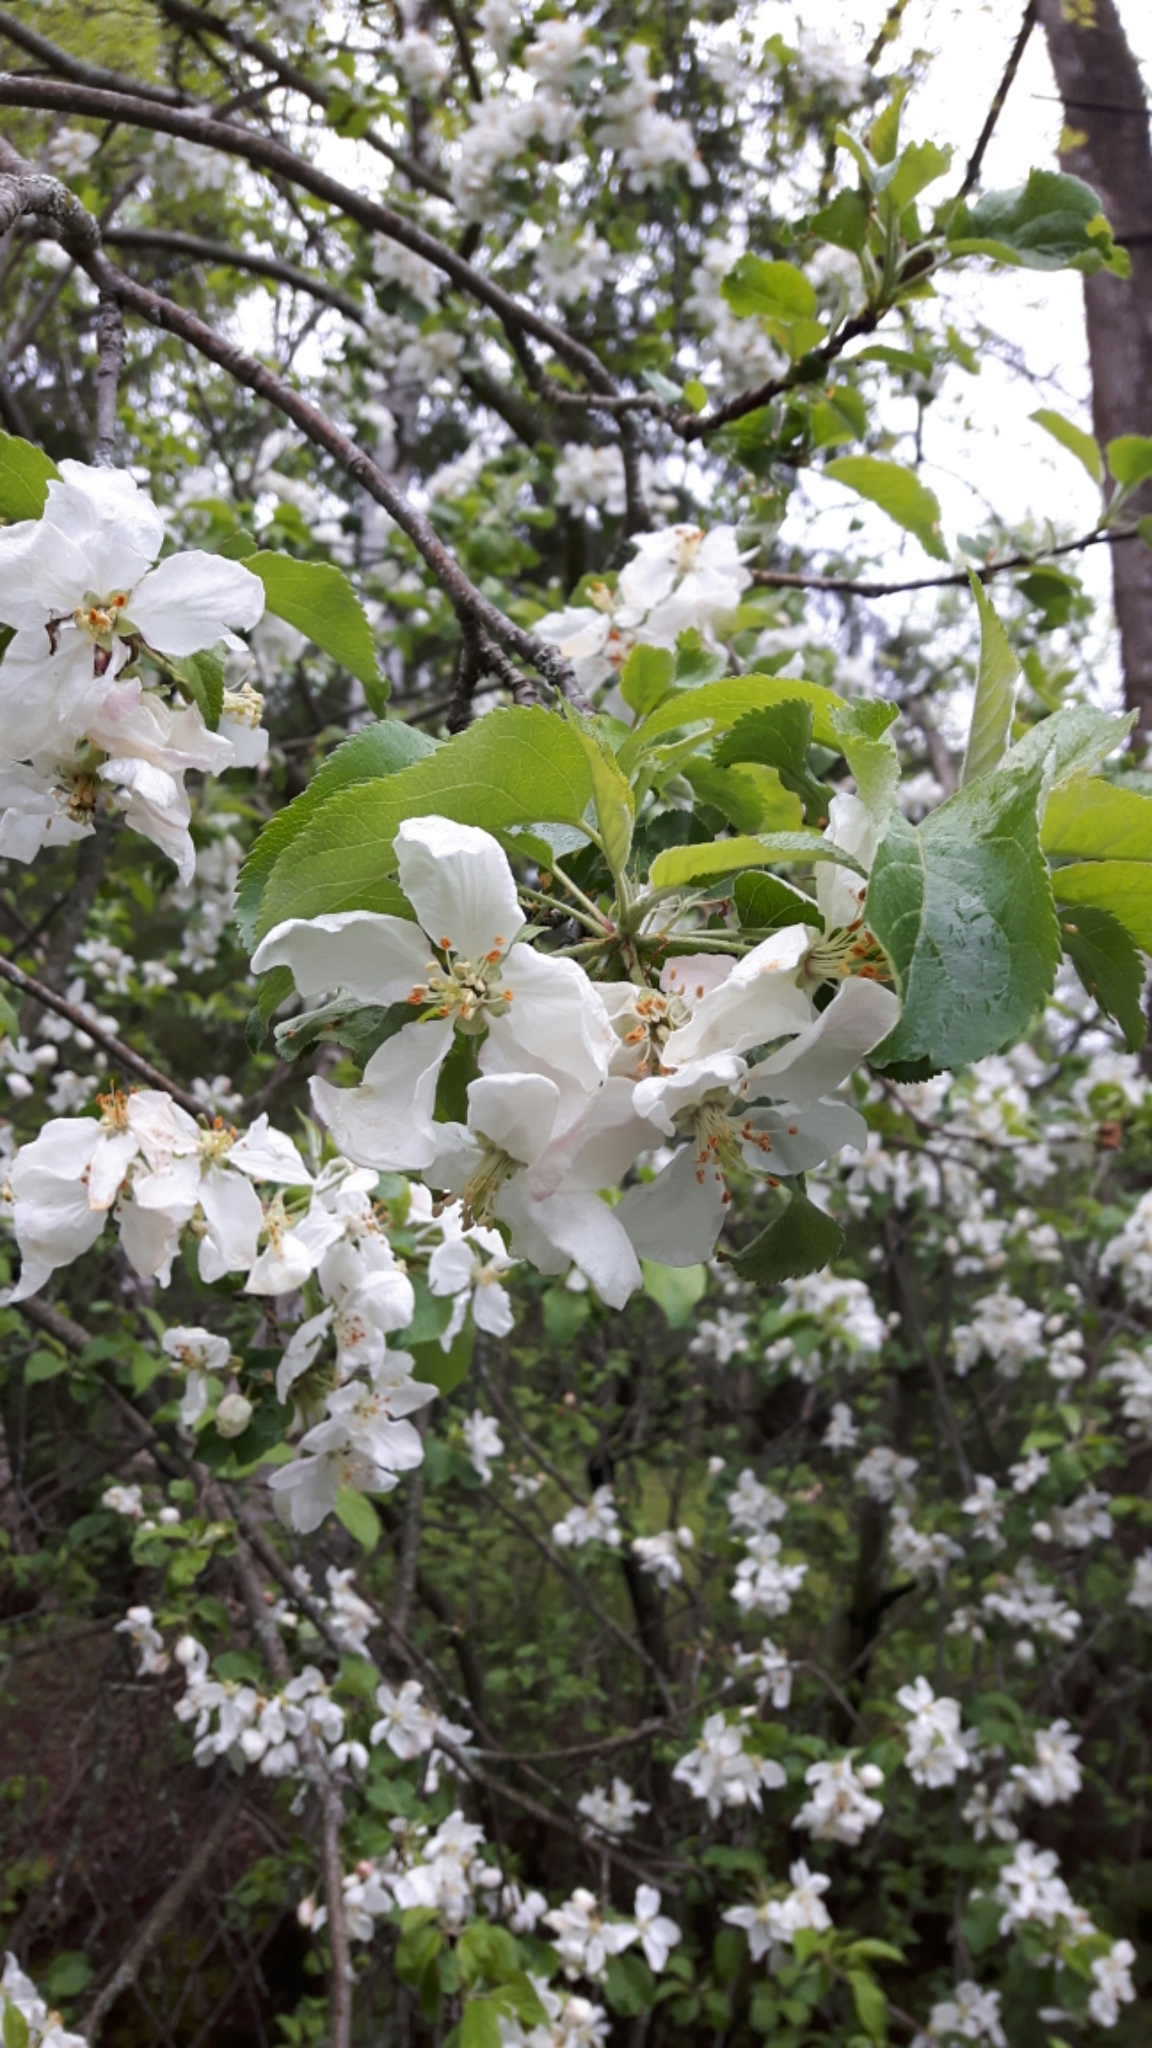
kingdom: Plantae
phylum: Tracheophyta
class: Magnoliopsida
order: Rosales
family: Rosaceae
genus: Malus
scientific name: Malus domestica
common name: Apple
